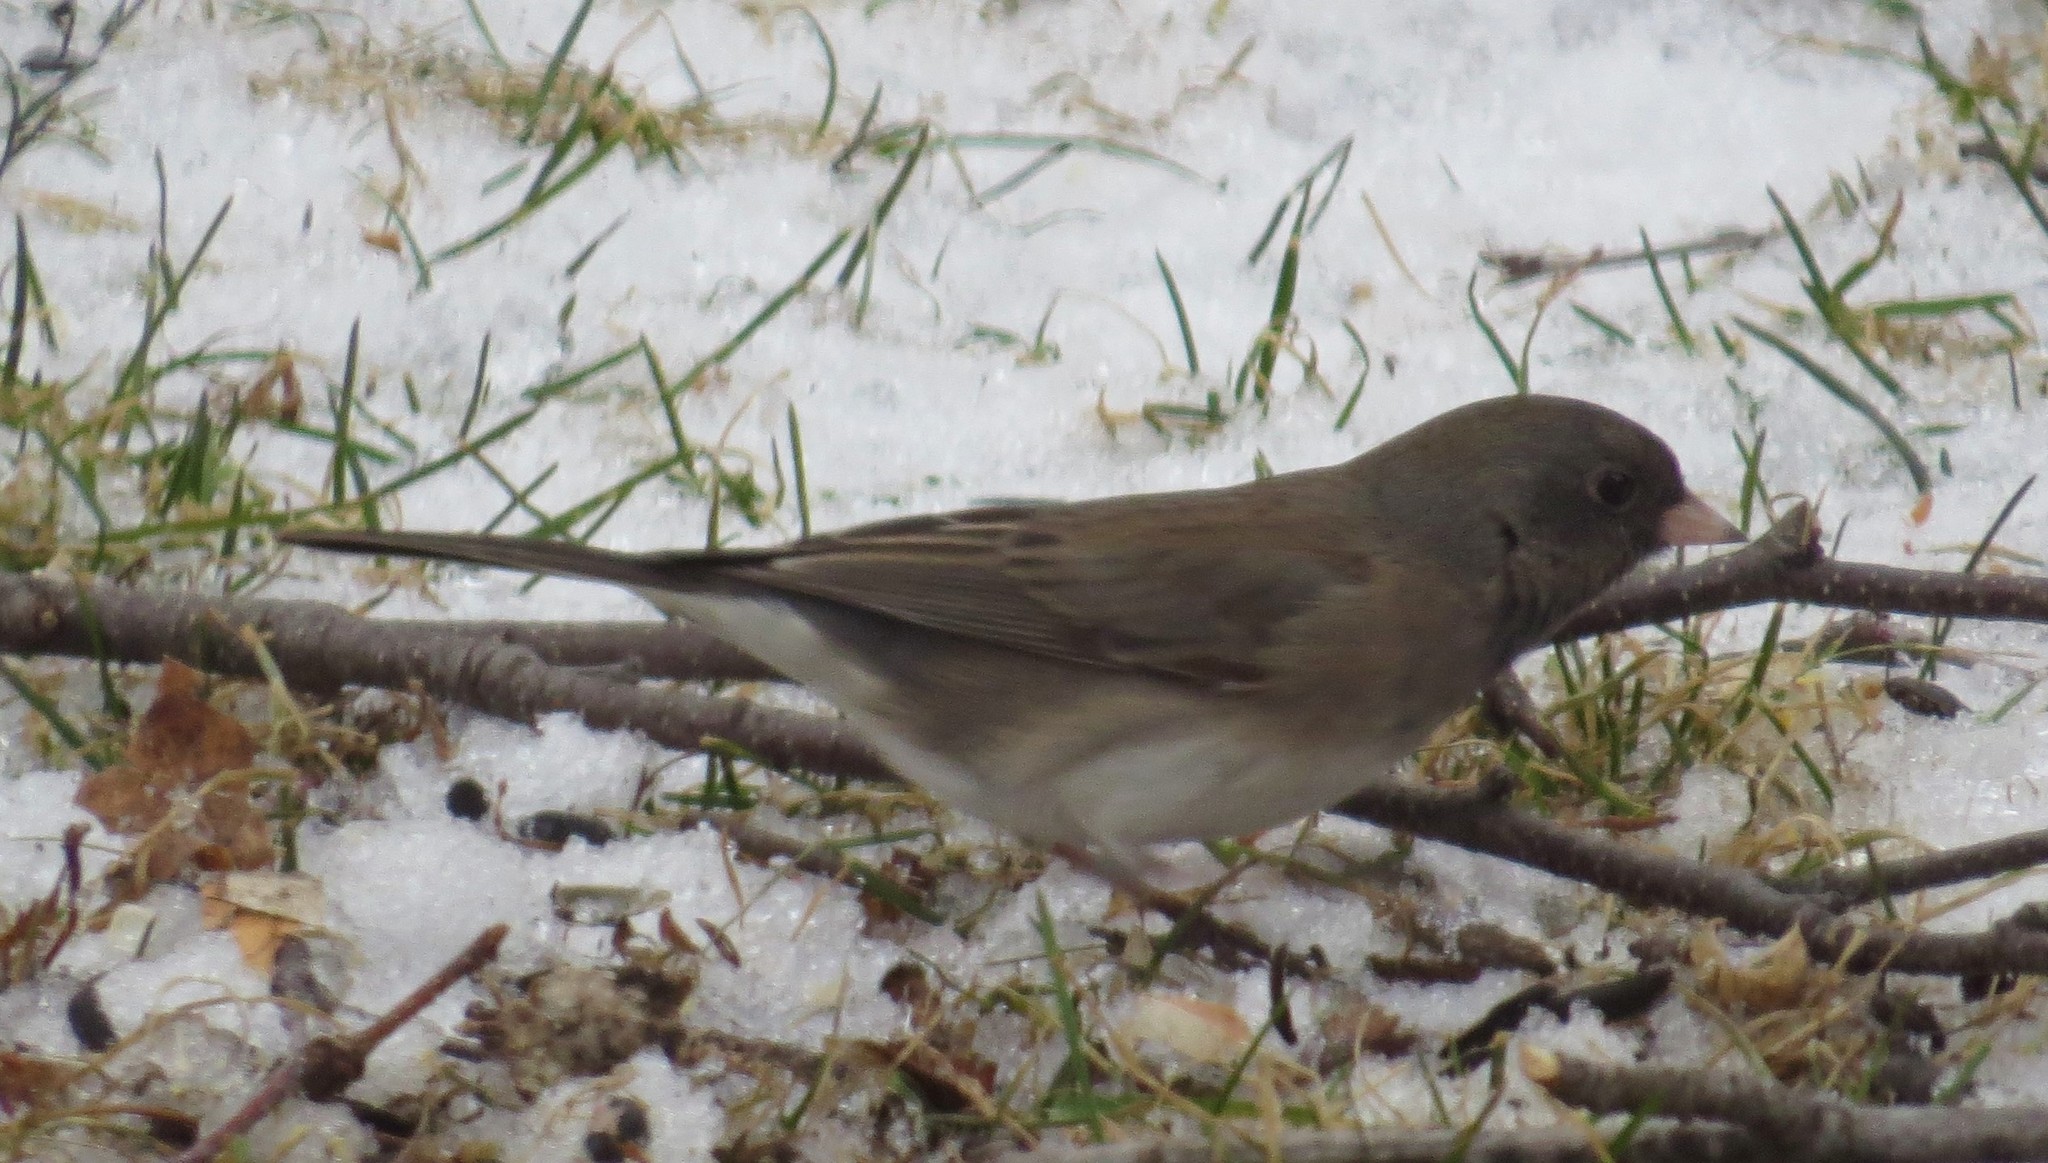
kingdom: Animalia
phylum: Chordata
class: Aves
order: Passeriformes
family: Passerellidae
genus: Junco
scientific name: Junco hyemalis
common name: Dark-eyed junco
